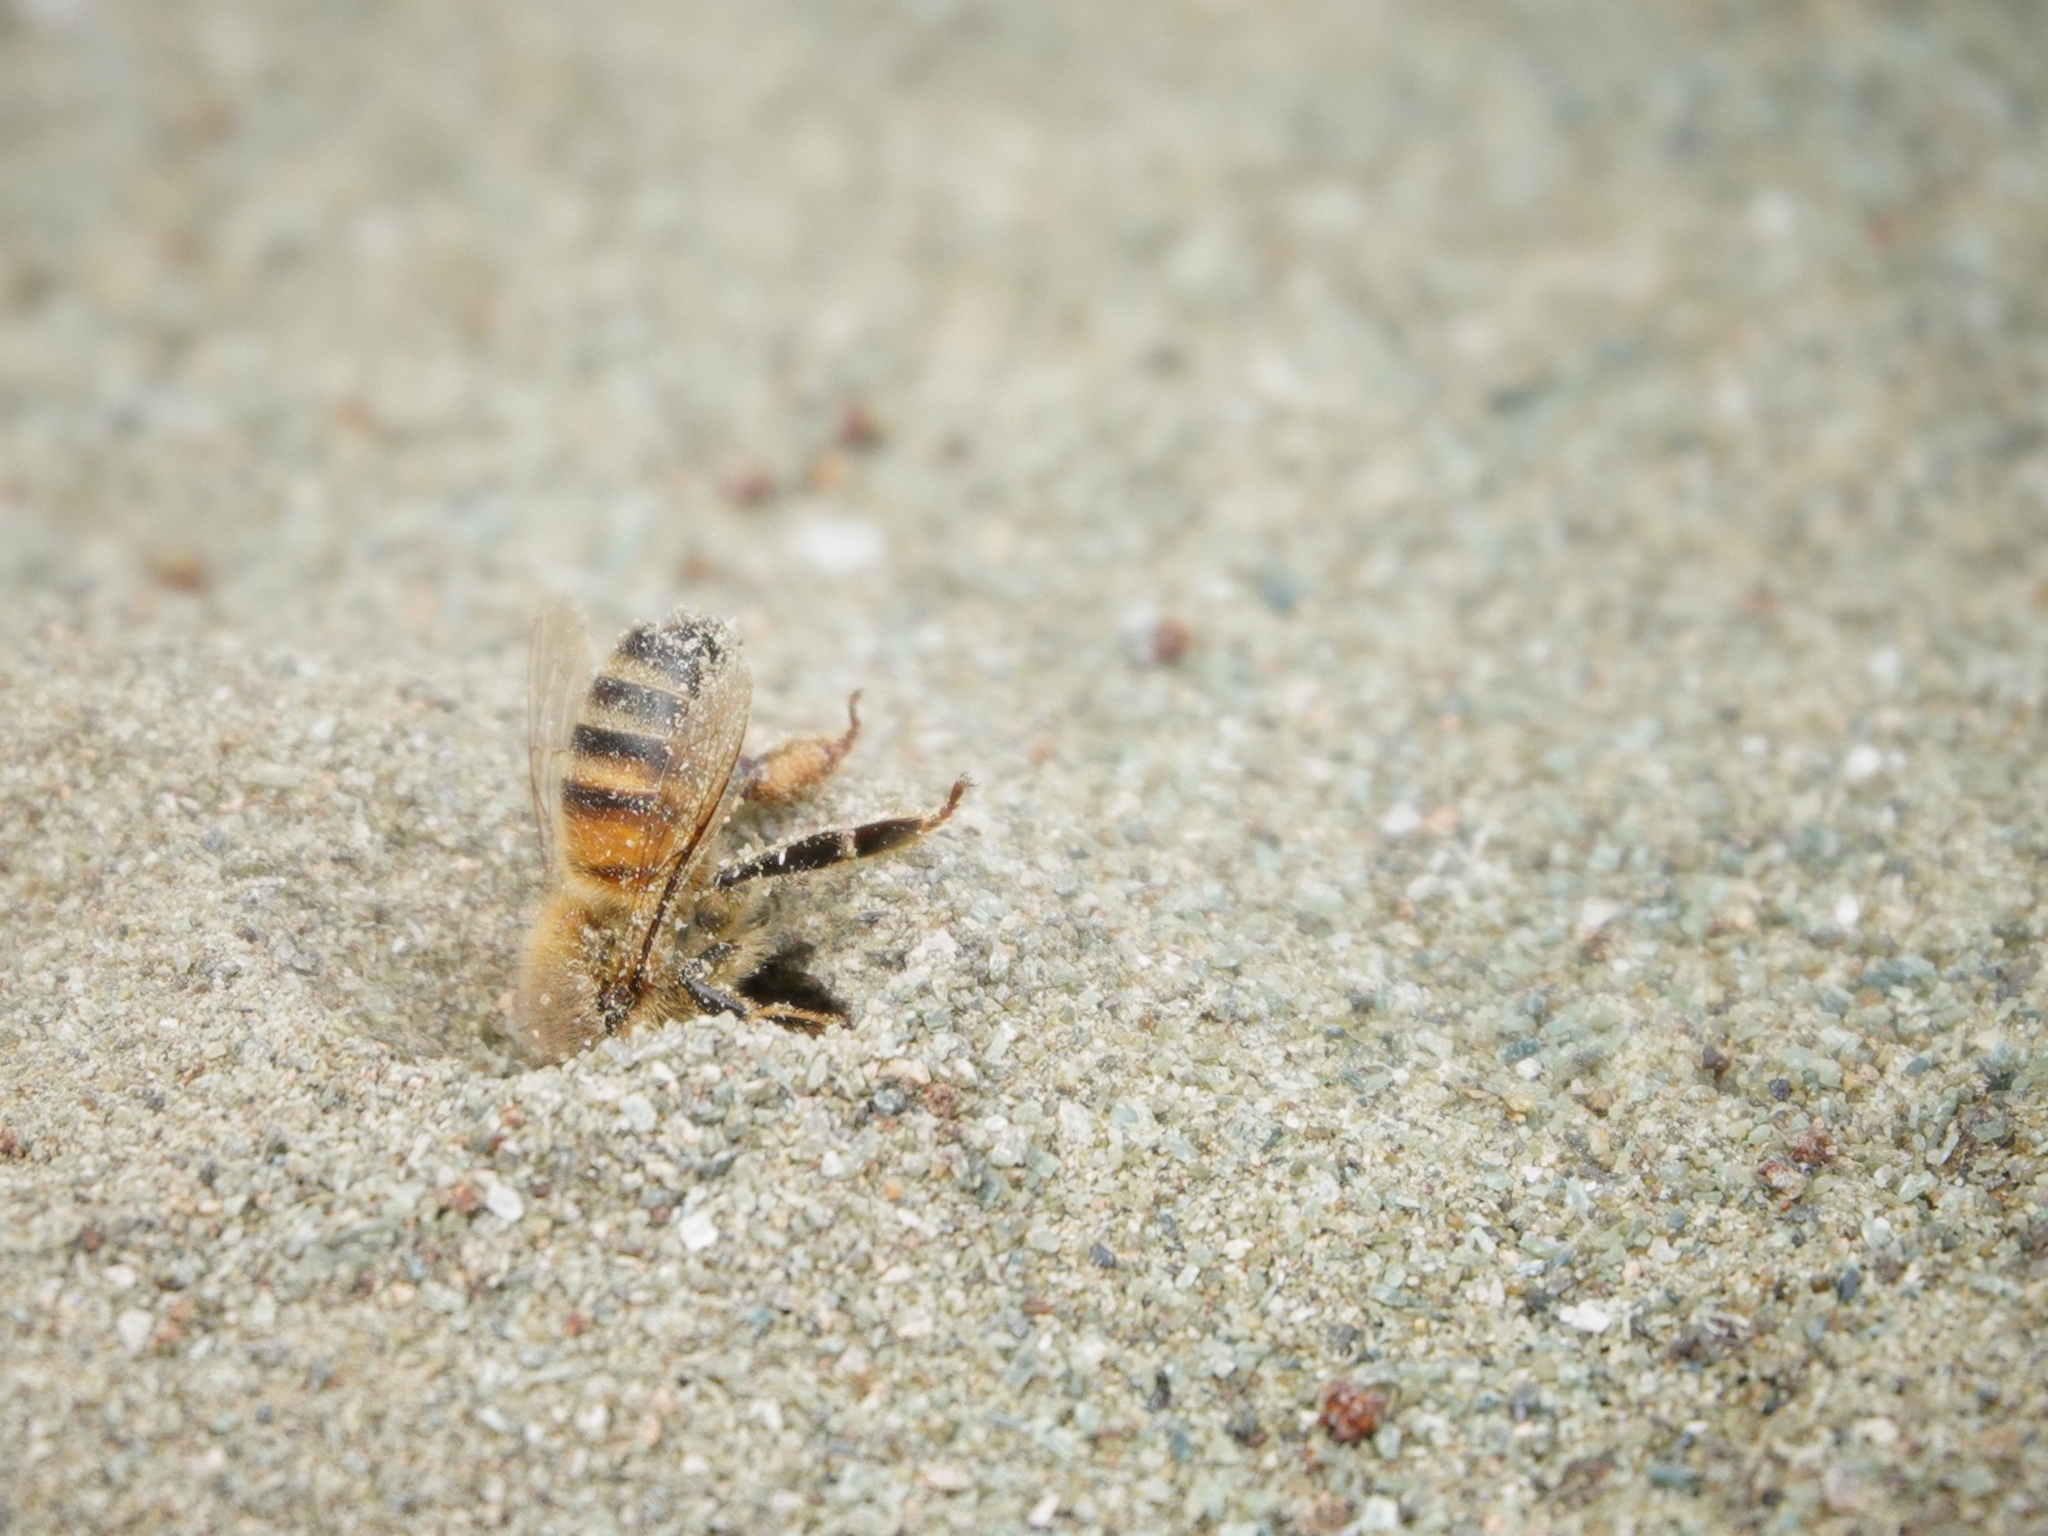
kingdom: Animalia
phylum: Arthropoda
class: Insecta
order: Hymenoptera
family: Apidae
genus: Apis
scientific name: Apis mellifera
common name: Honey bee
